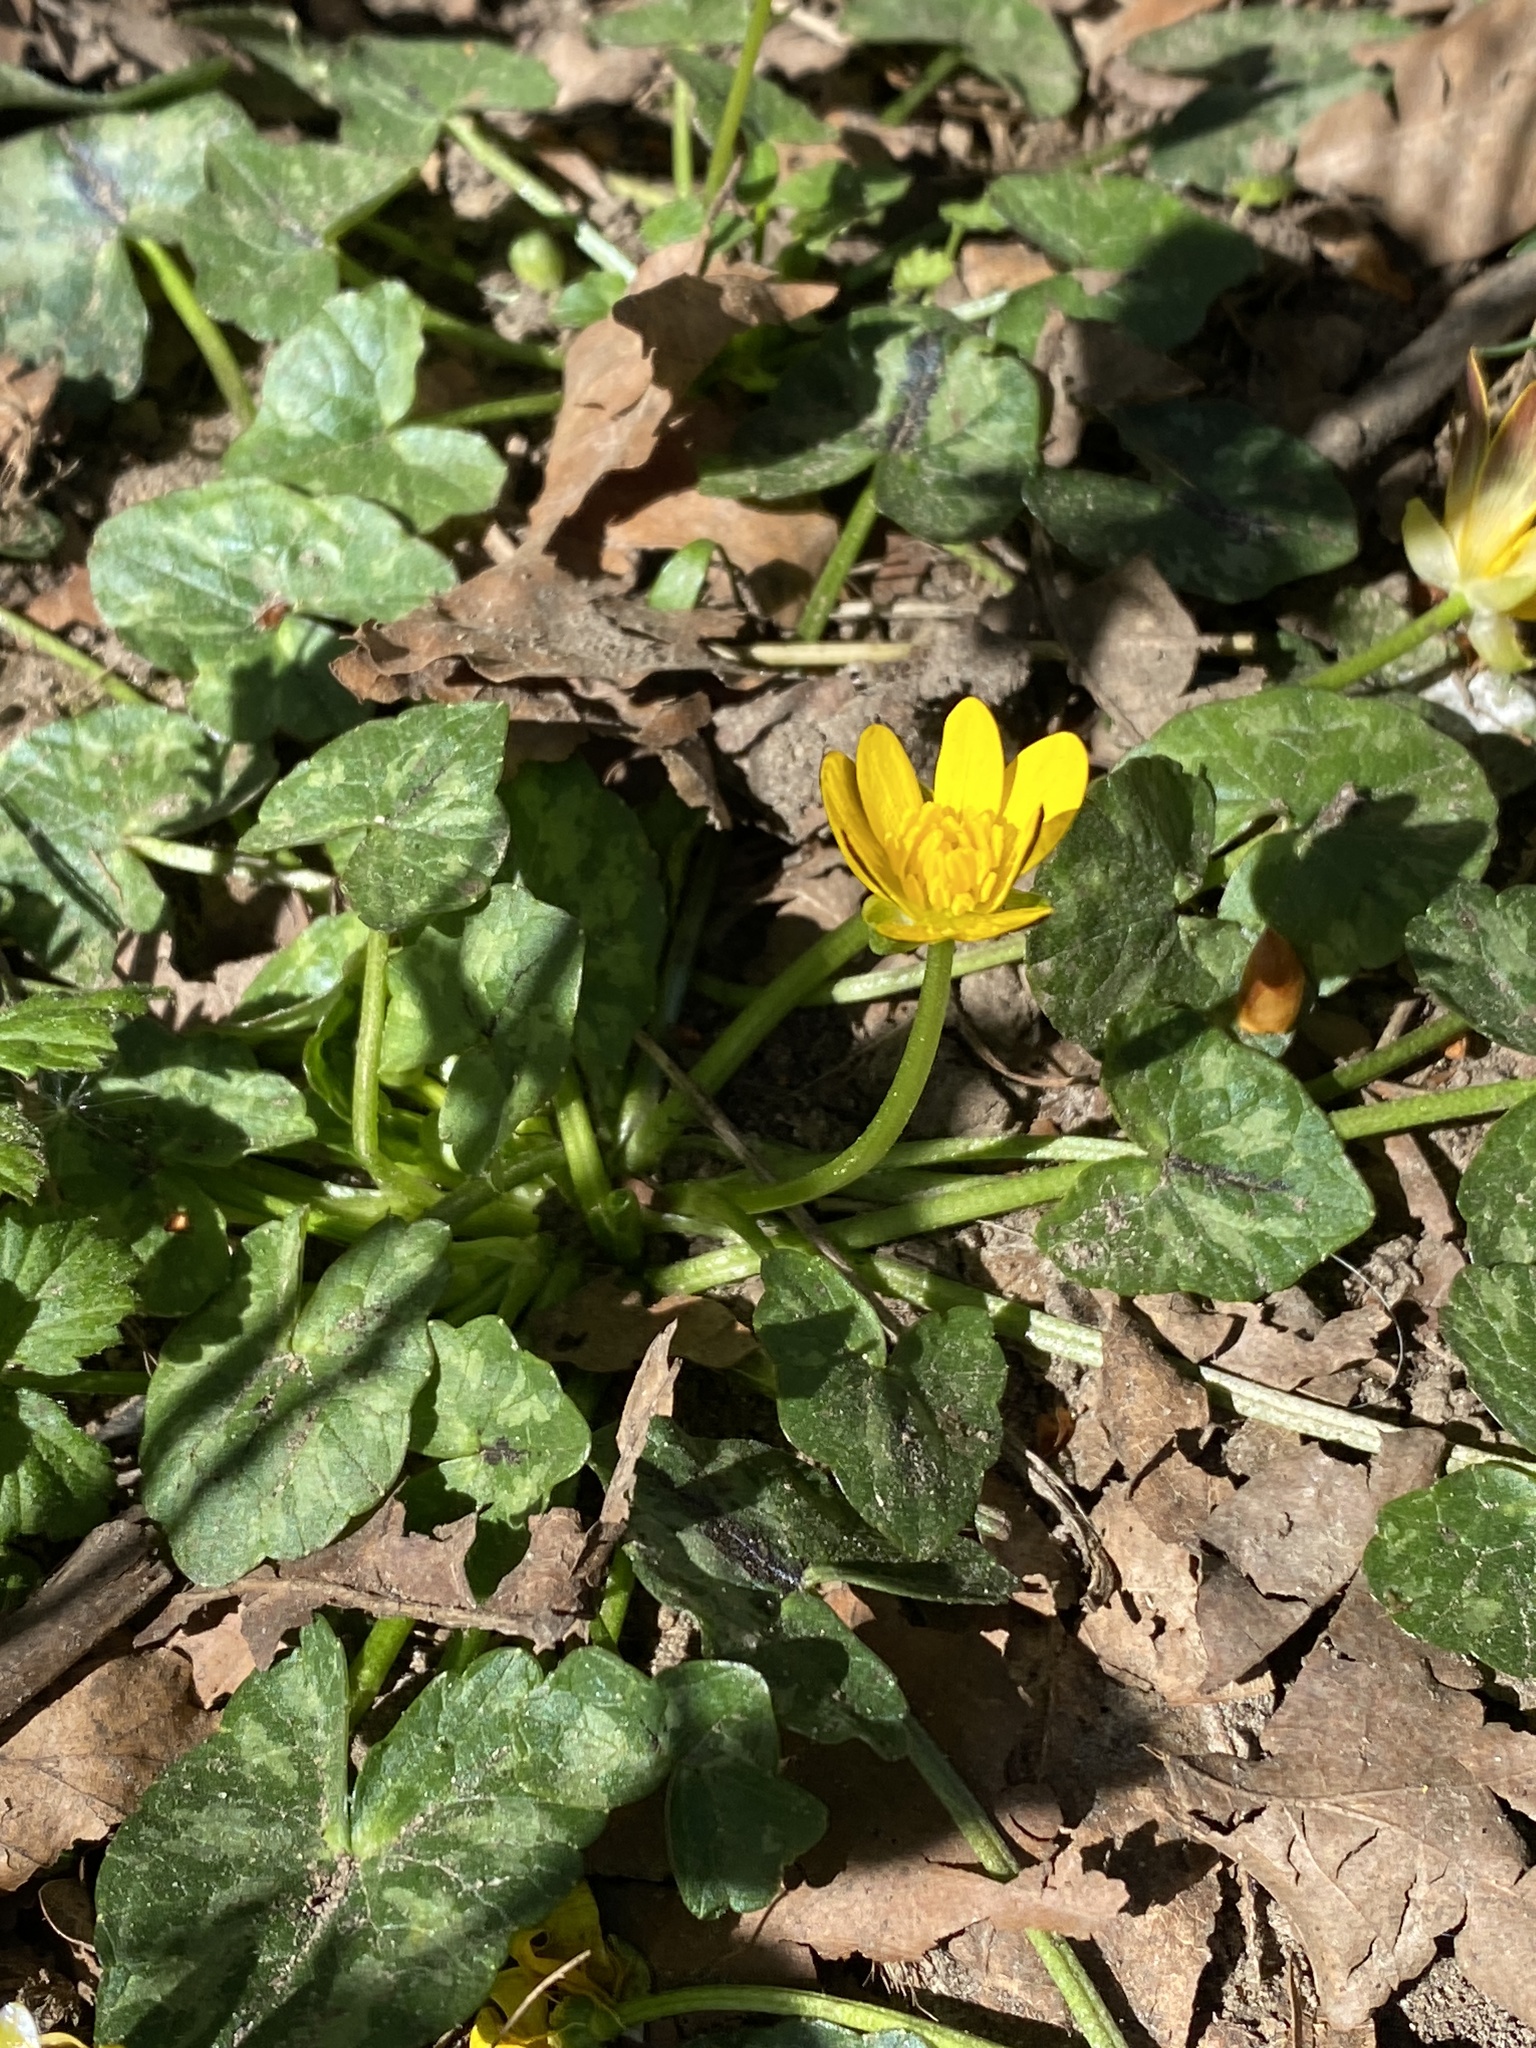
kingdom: Plantae
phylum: Tracheophyta
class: Magnoliopsida
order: Ranunculales
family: Ranunculaceae
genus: Ficaria
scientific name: Ficaria verna
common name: Lesser celandine
